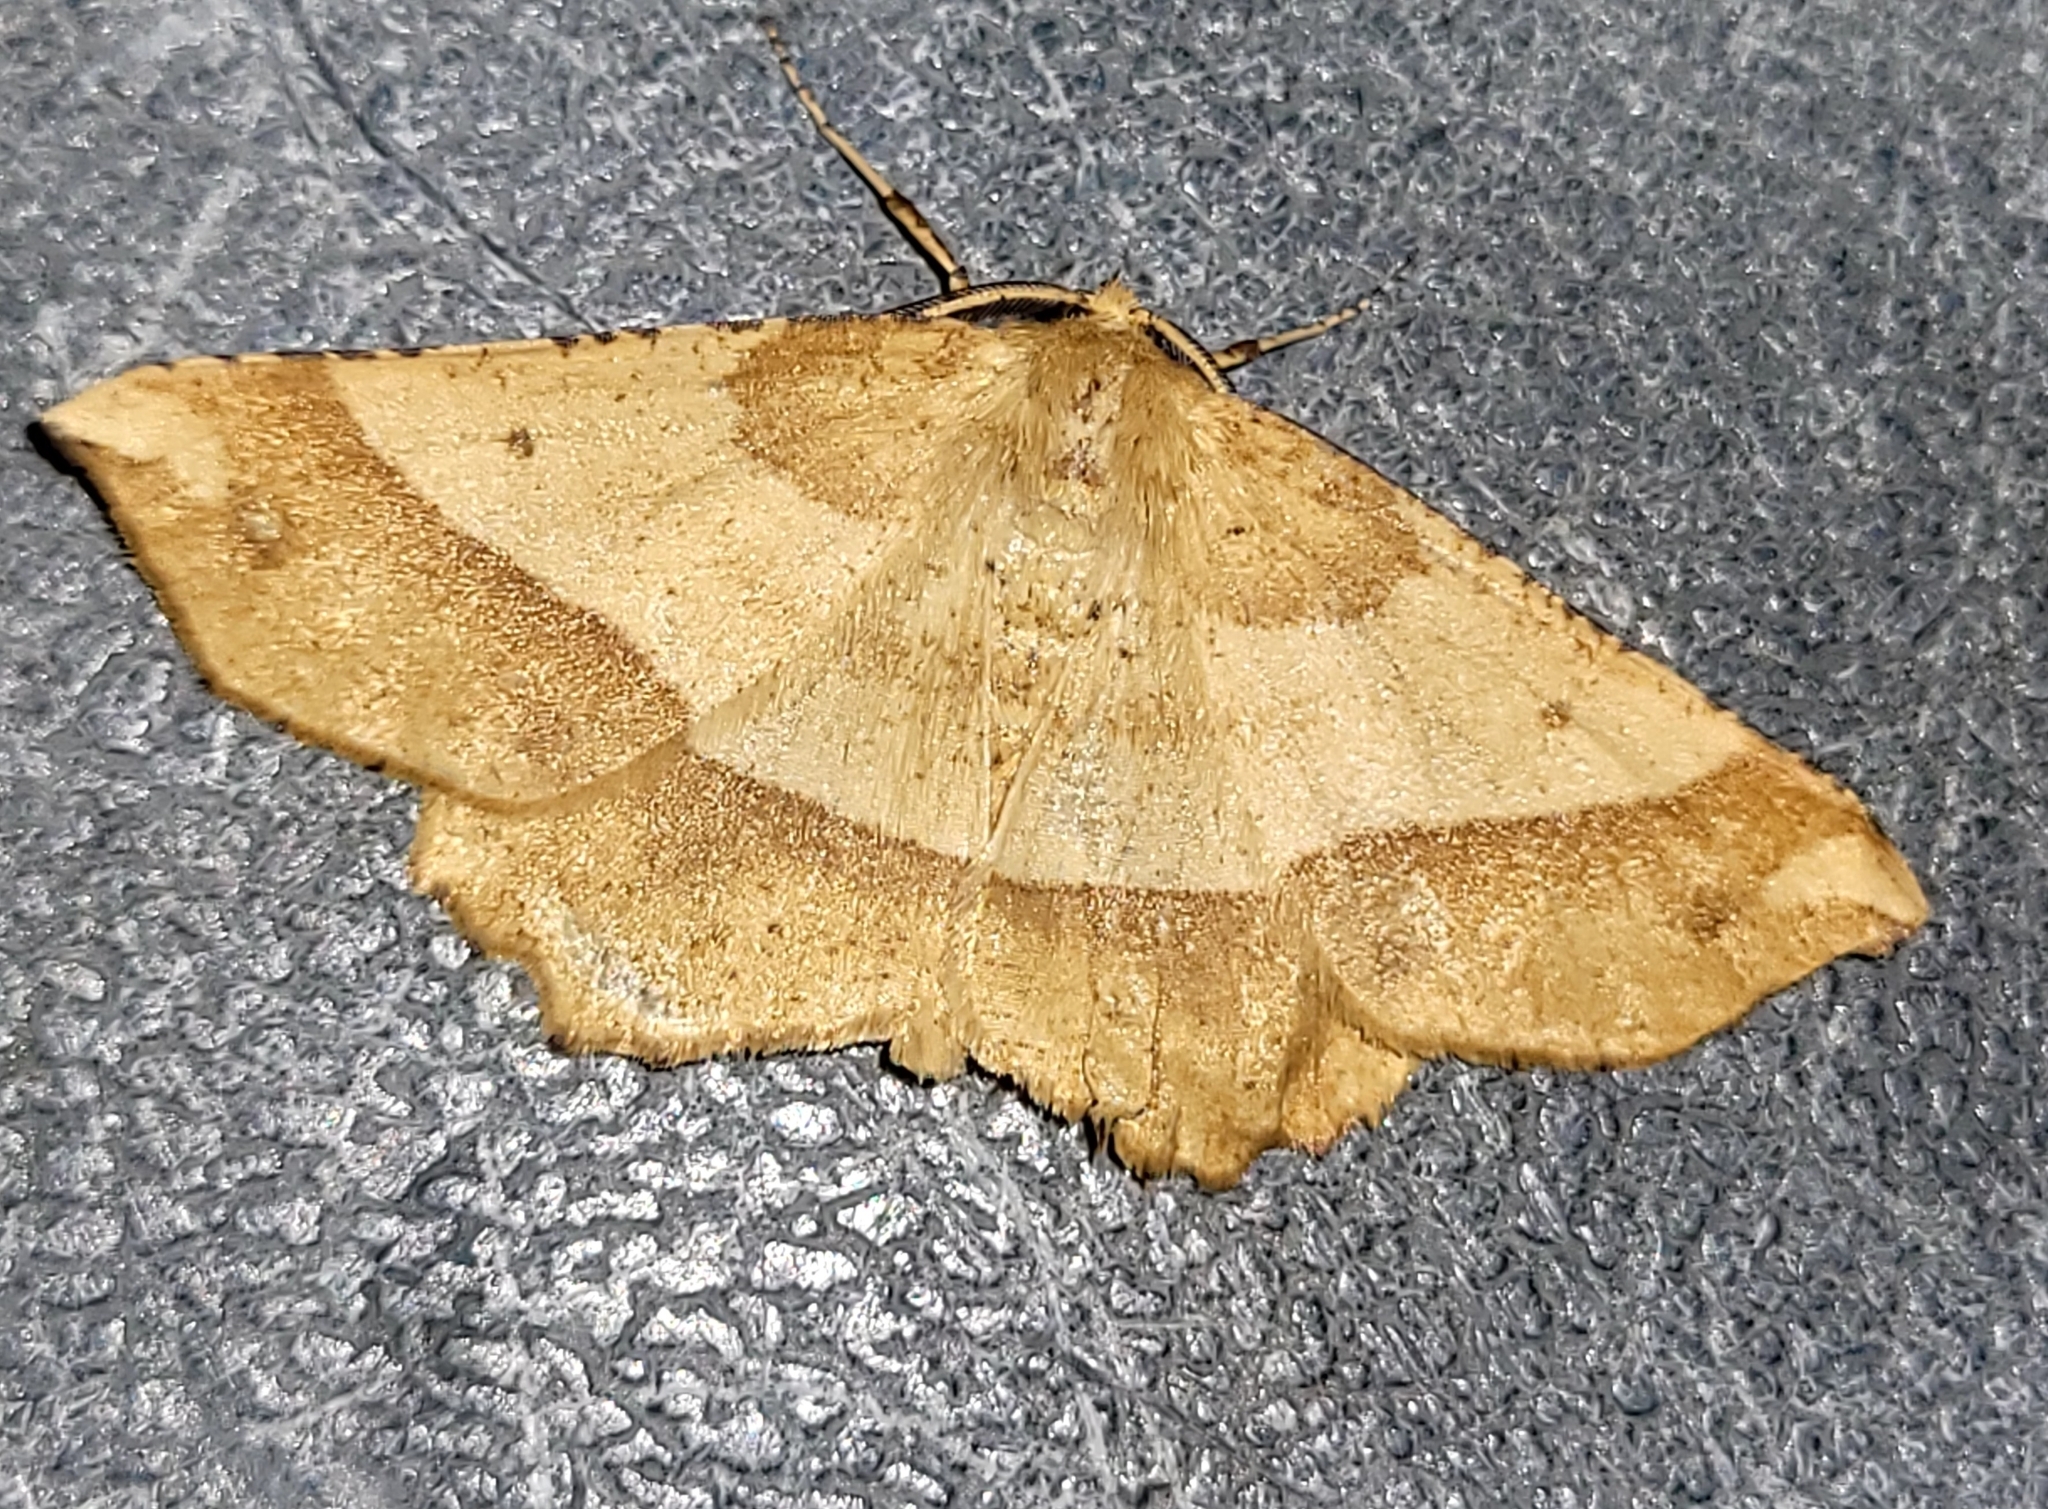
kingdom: Animalia
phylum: Arthropoda
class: Insecta
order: Lepidoptera
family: Geometridae
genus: Euchlaena
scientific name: Euchlaena tigrinaria
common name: Mottled euchlaena moth
